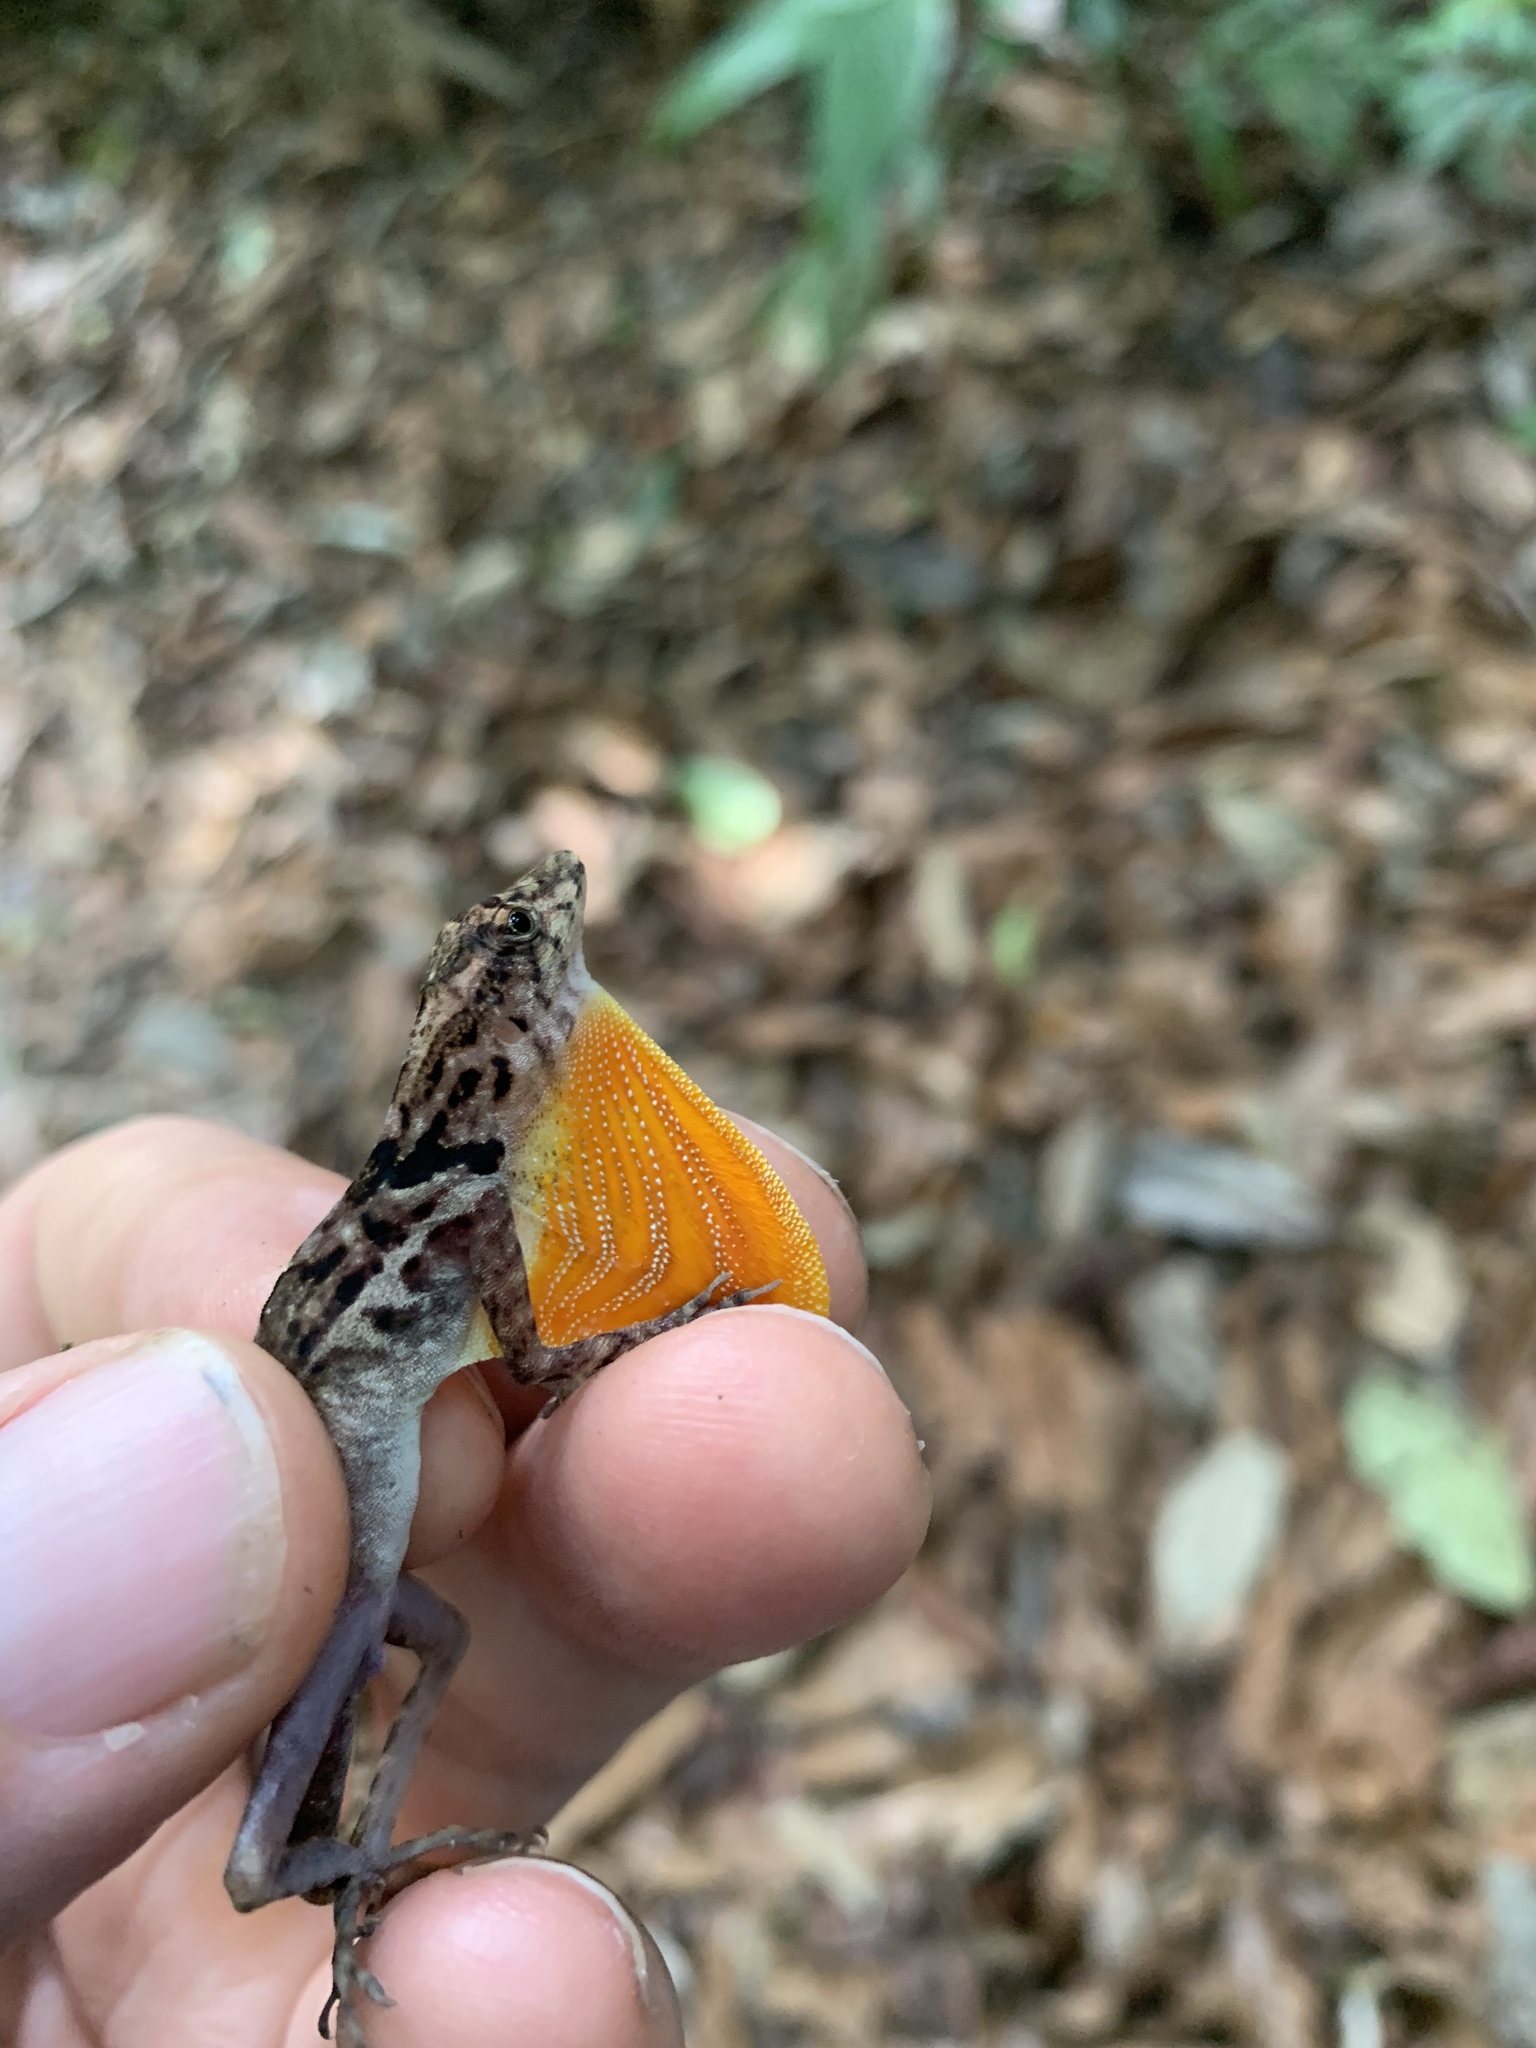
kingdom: Animalia
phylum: Chordata
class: Squamata
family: Dactyloidae
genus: Anolis
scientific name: Anolis osa
